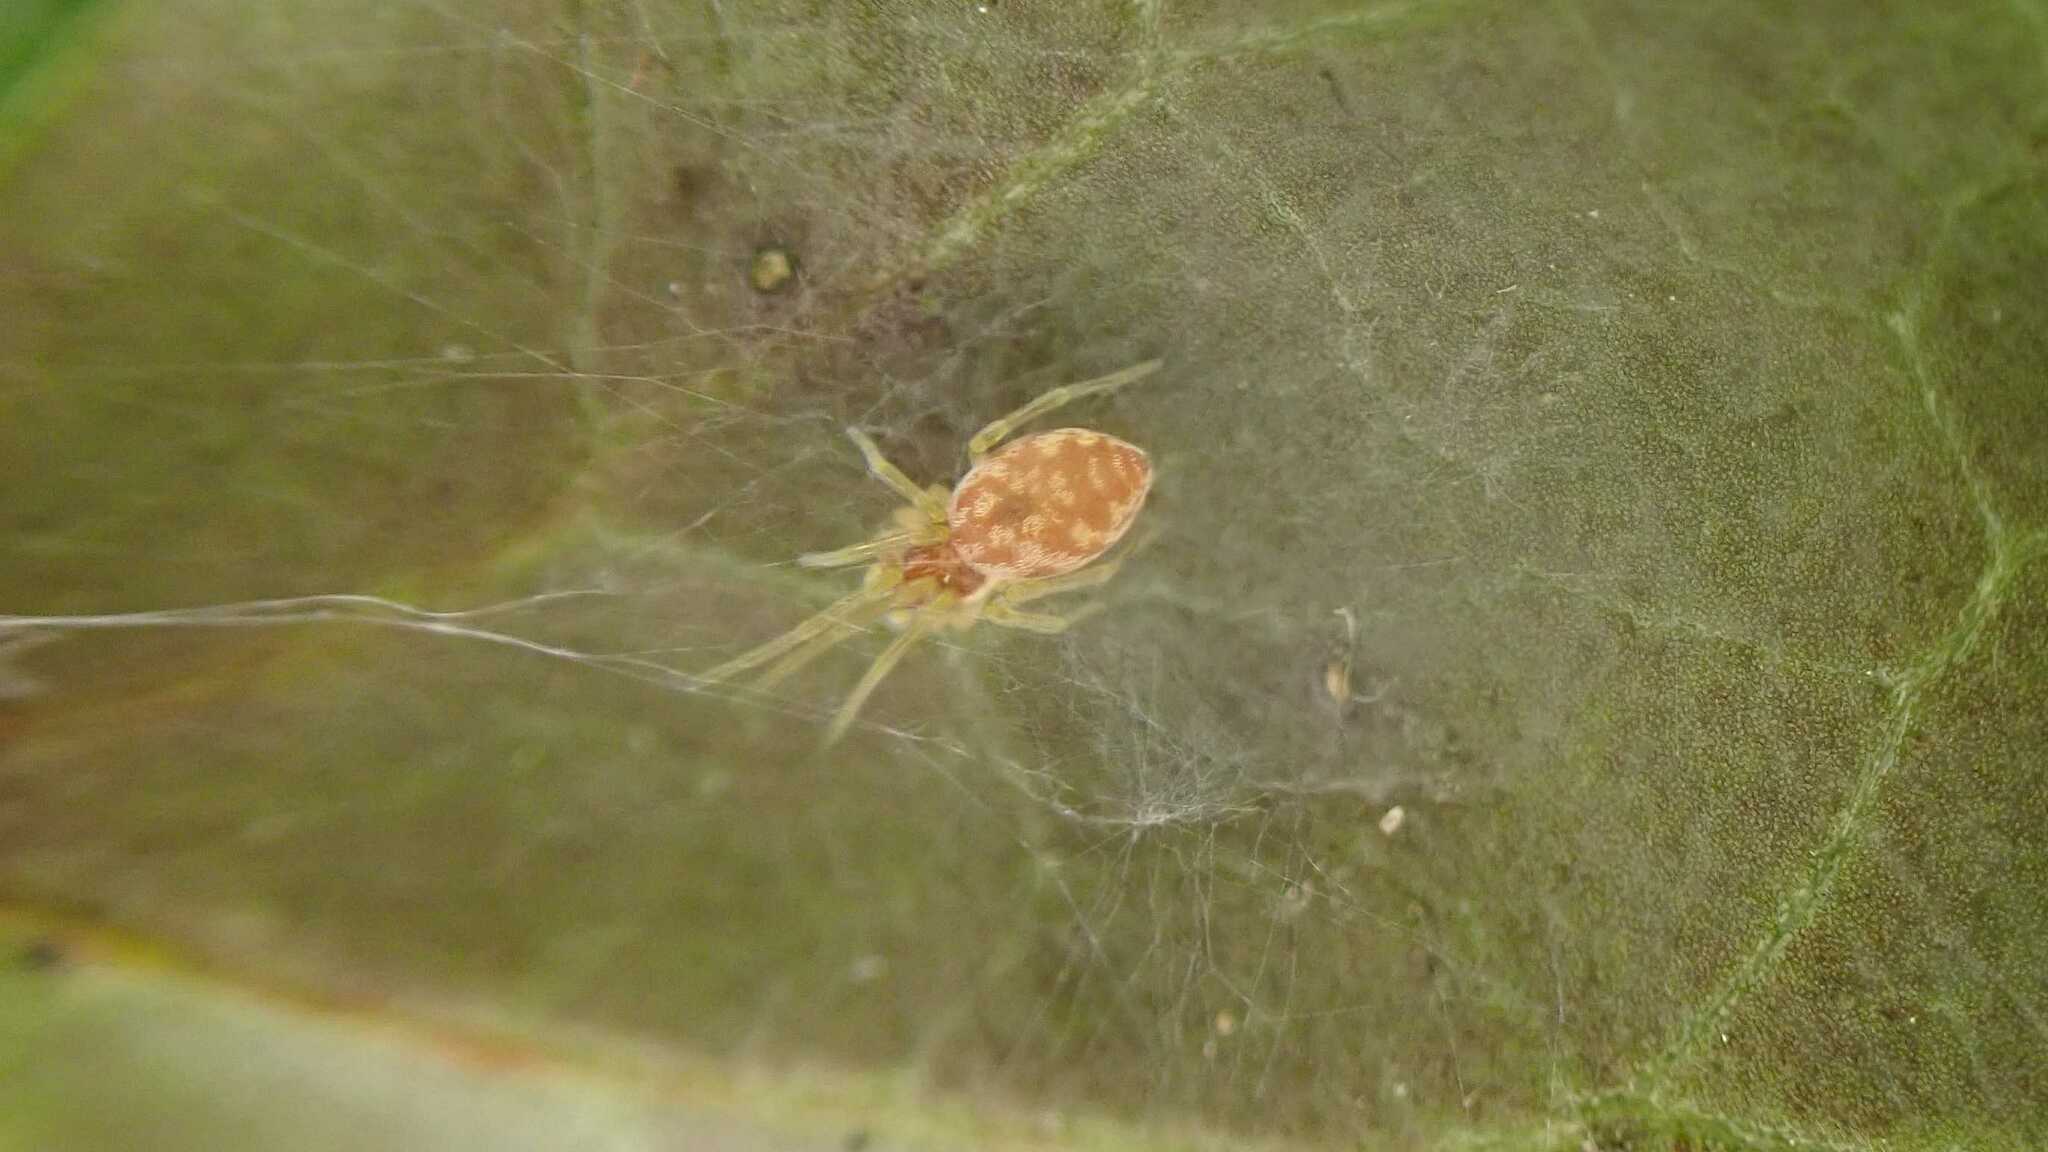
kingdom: Animalia
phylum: Arthropoda
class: Arachnida
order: Araneae
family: Dictynidae
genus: Nigma
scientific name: Nigma flavescens
